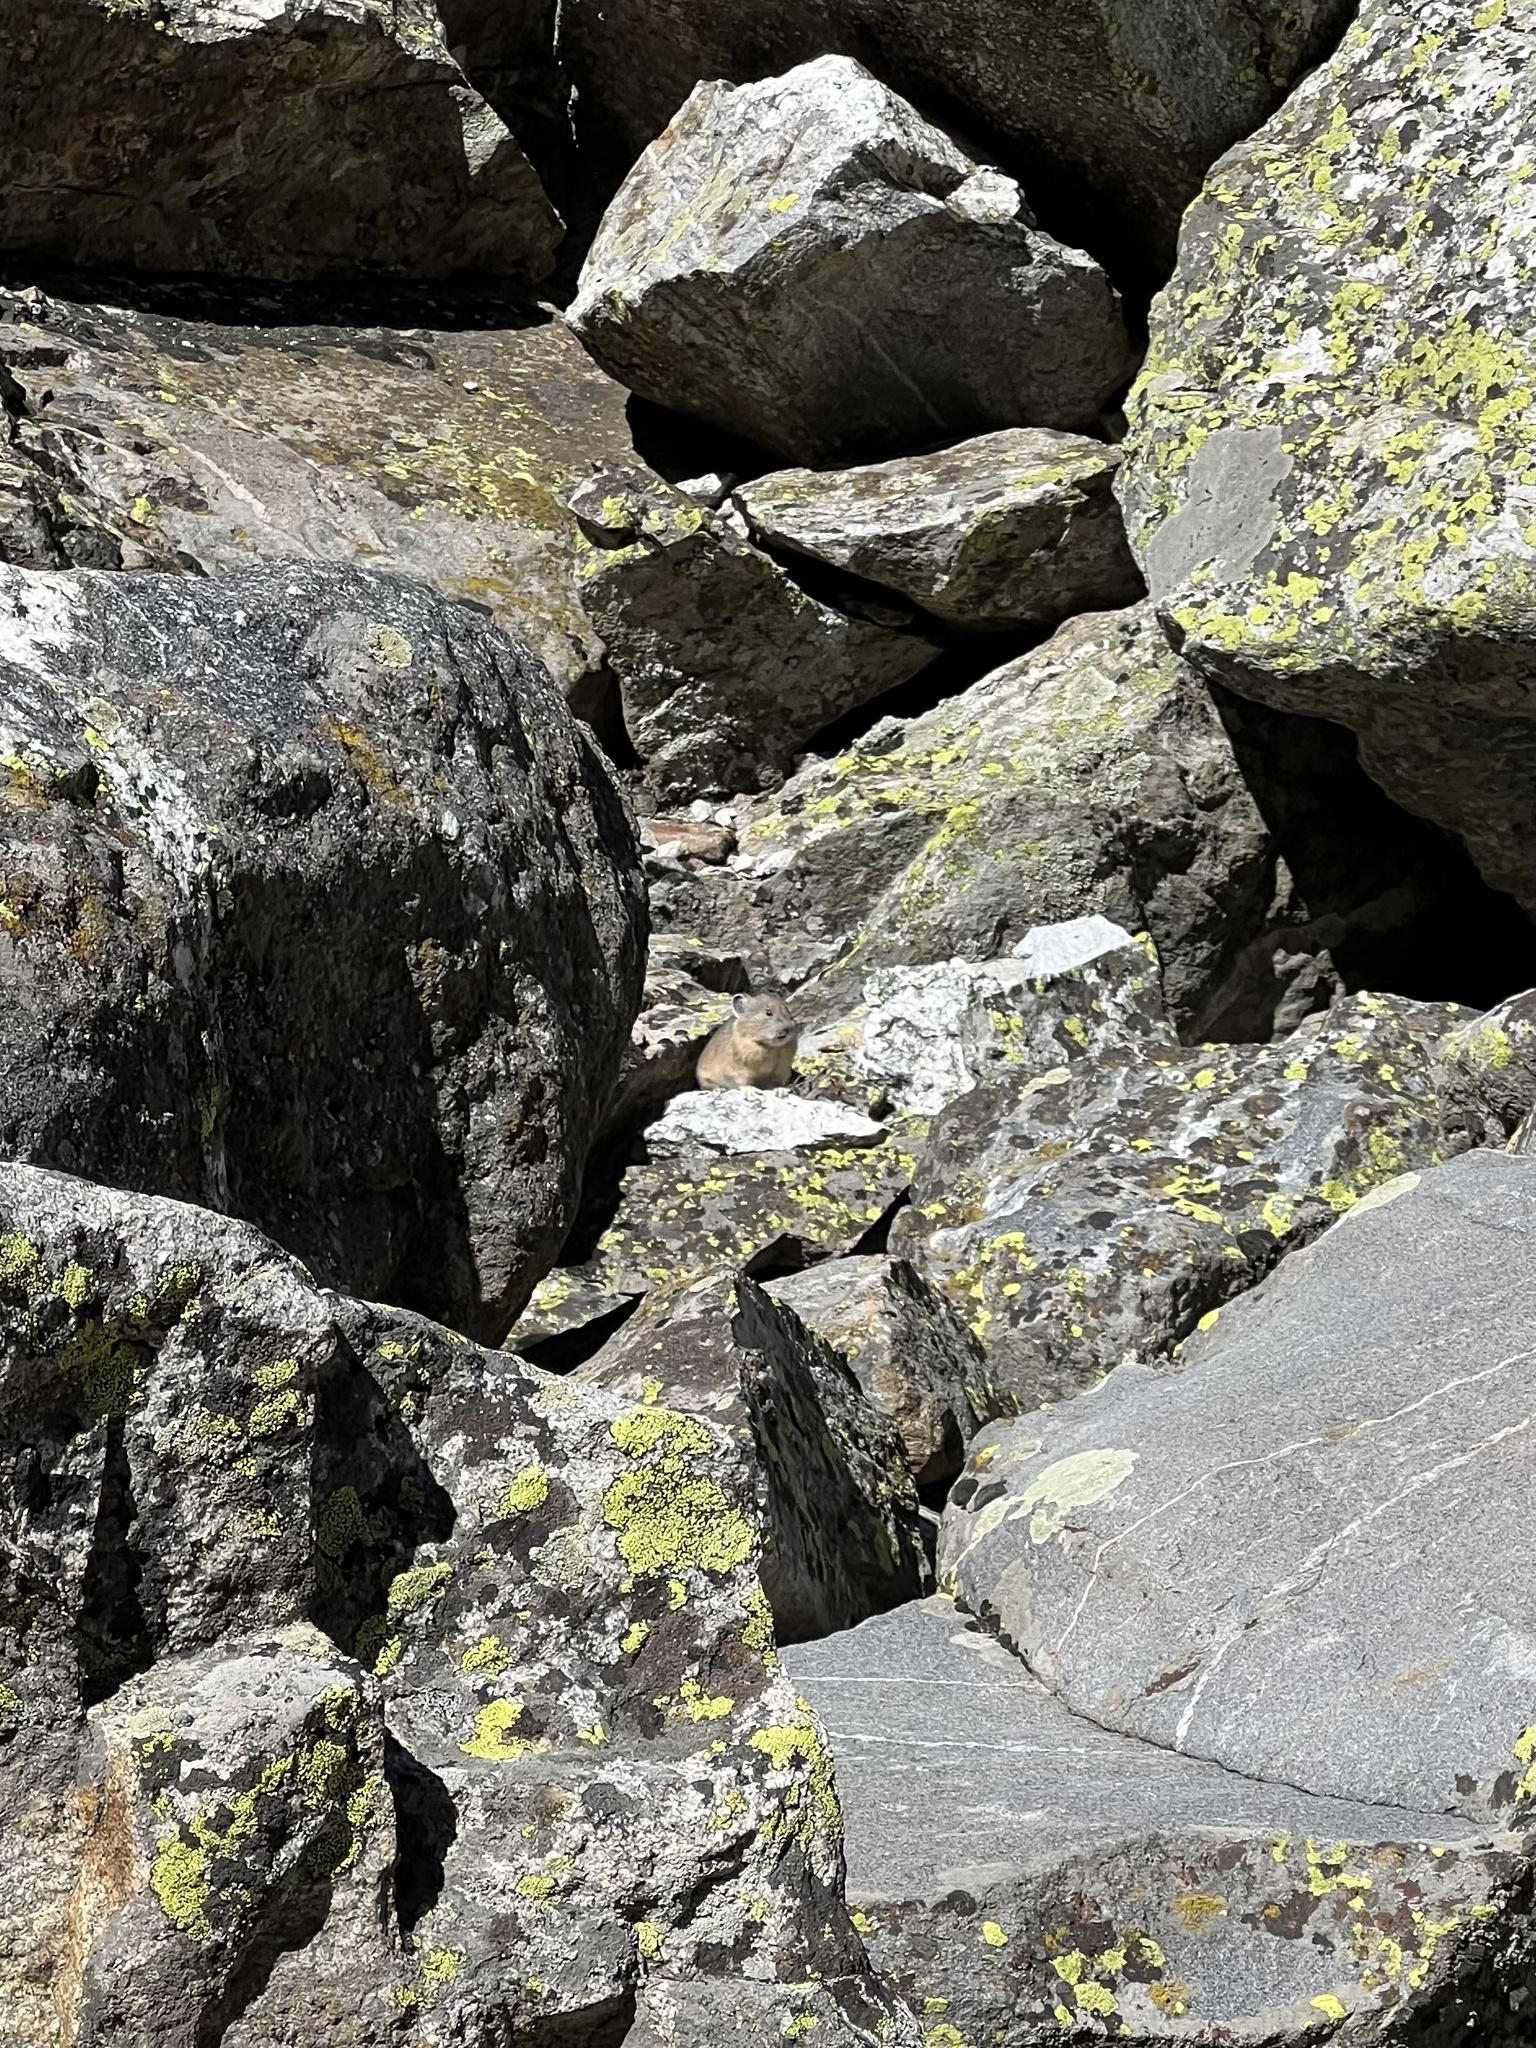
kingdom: Animalia
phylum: Chordata
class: Mammalia
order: Lagomorpha
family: Ochotonidae
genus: Ochotona
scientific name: Ochotona princeps
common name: American pika
